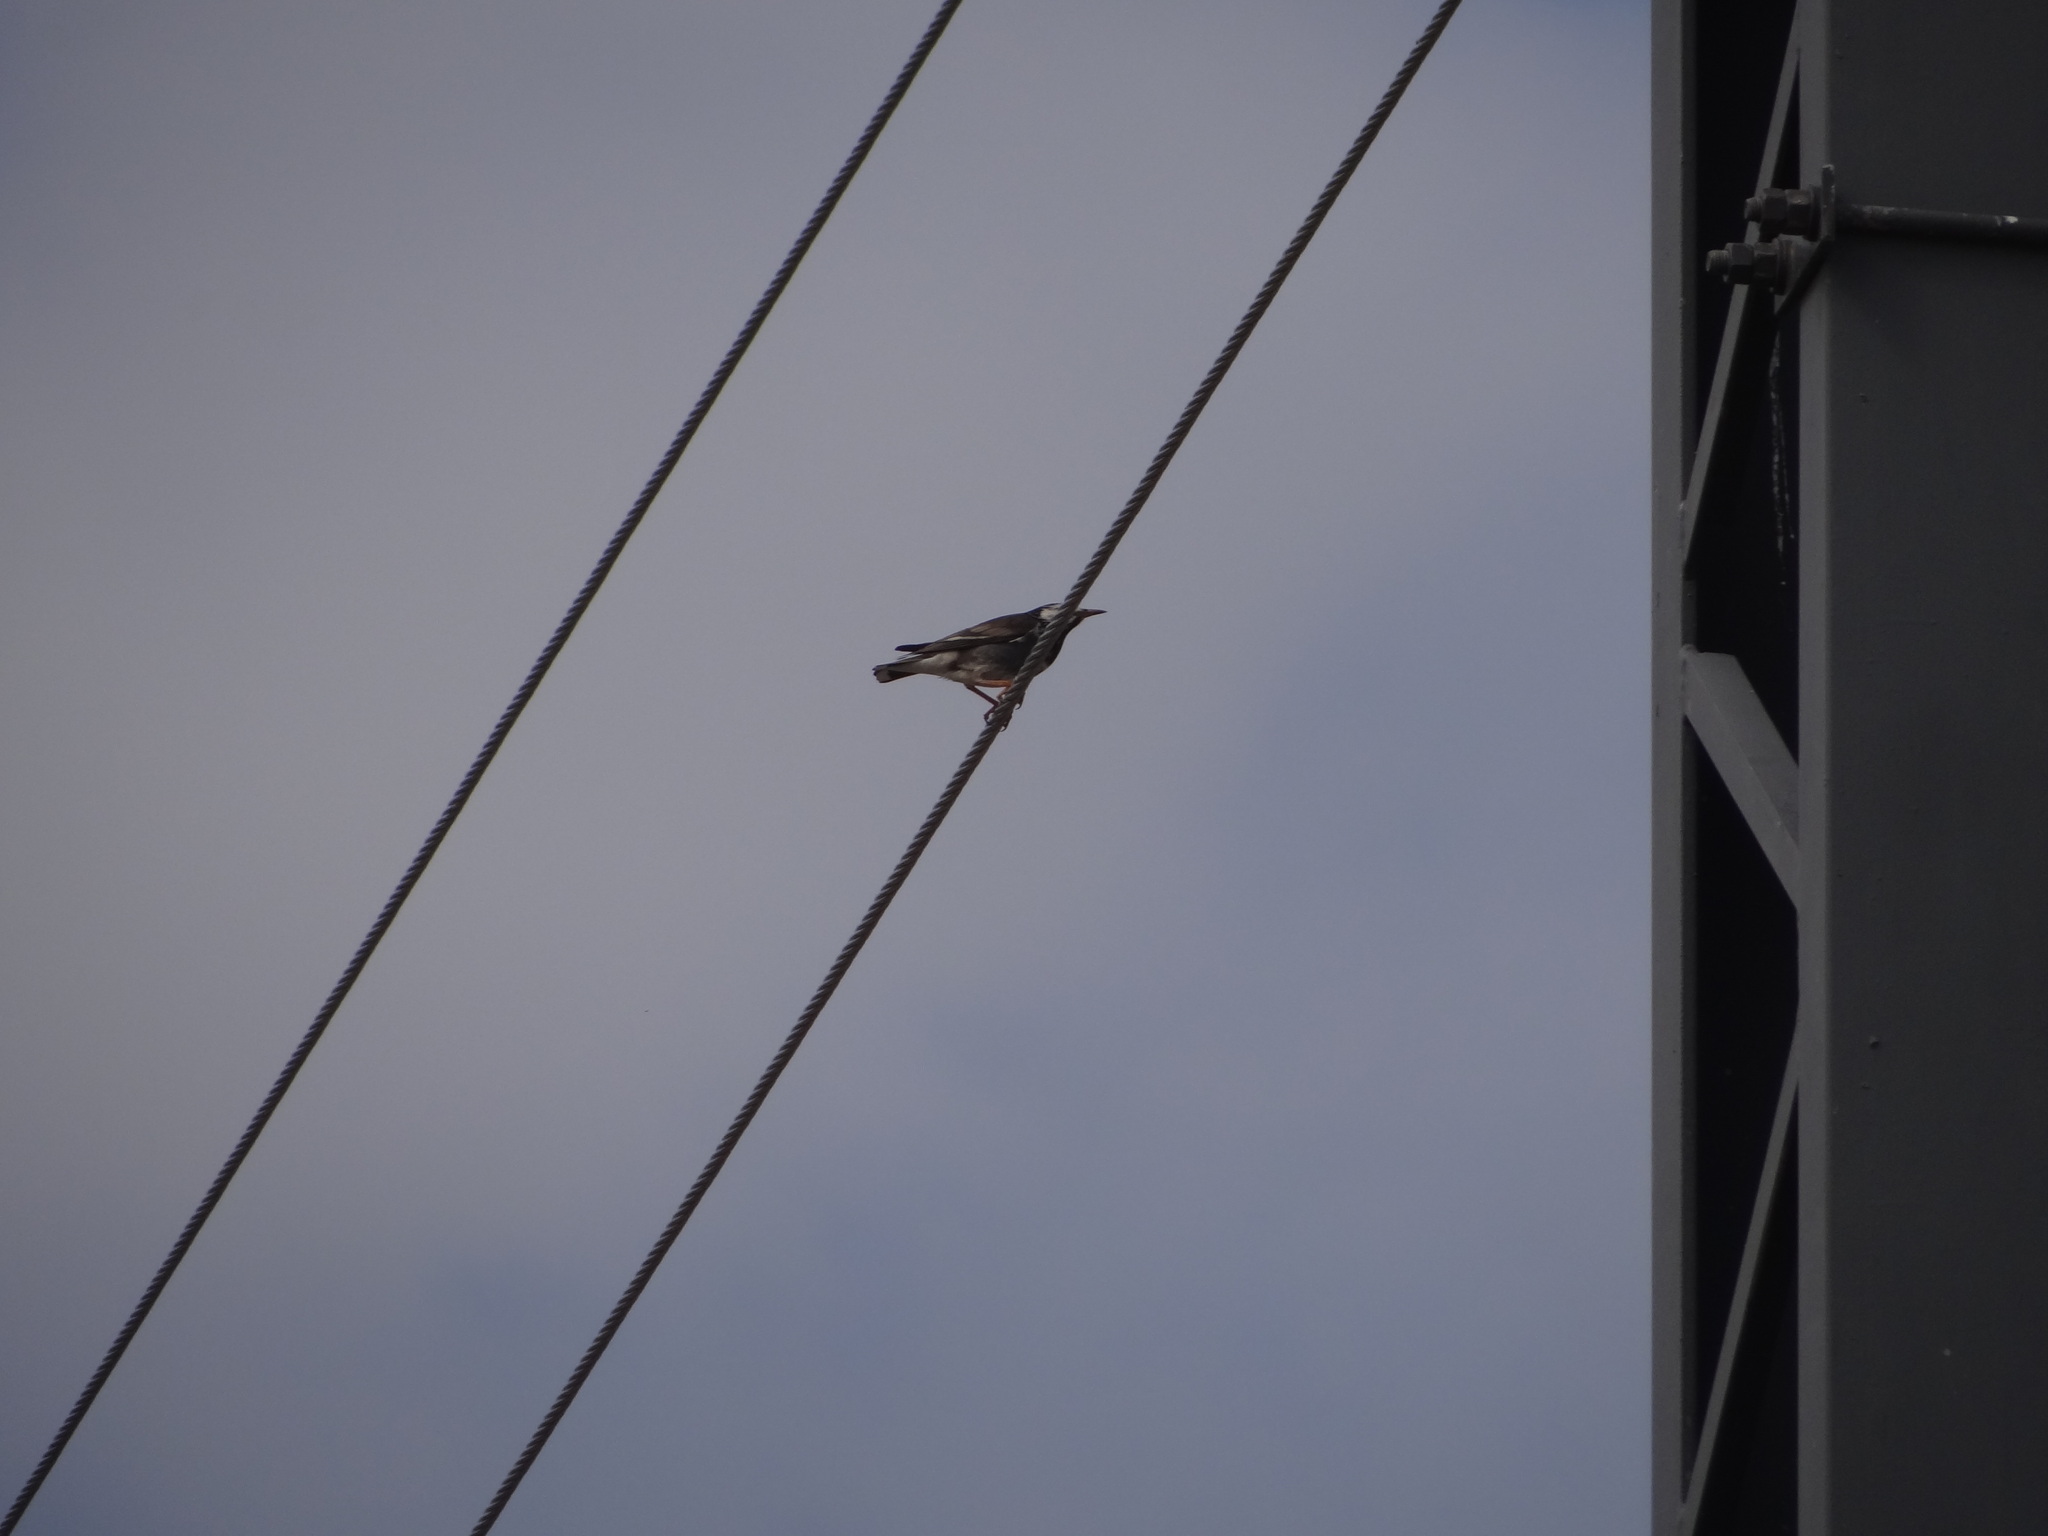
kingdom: Animalia
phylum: Chordata
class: Aves
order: Passeriformes
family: Sturnidae
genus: Spodiopsar
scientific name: Spodiopsar cineraceus
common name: White-cheeked starling
